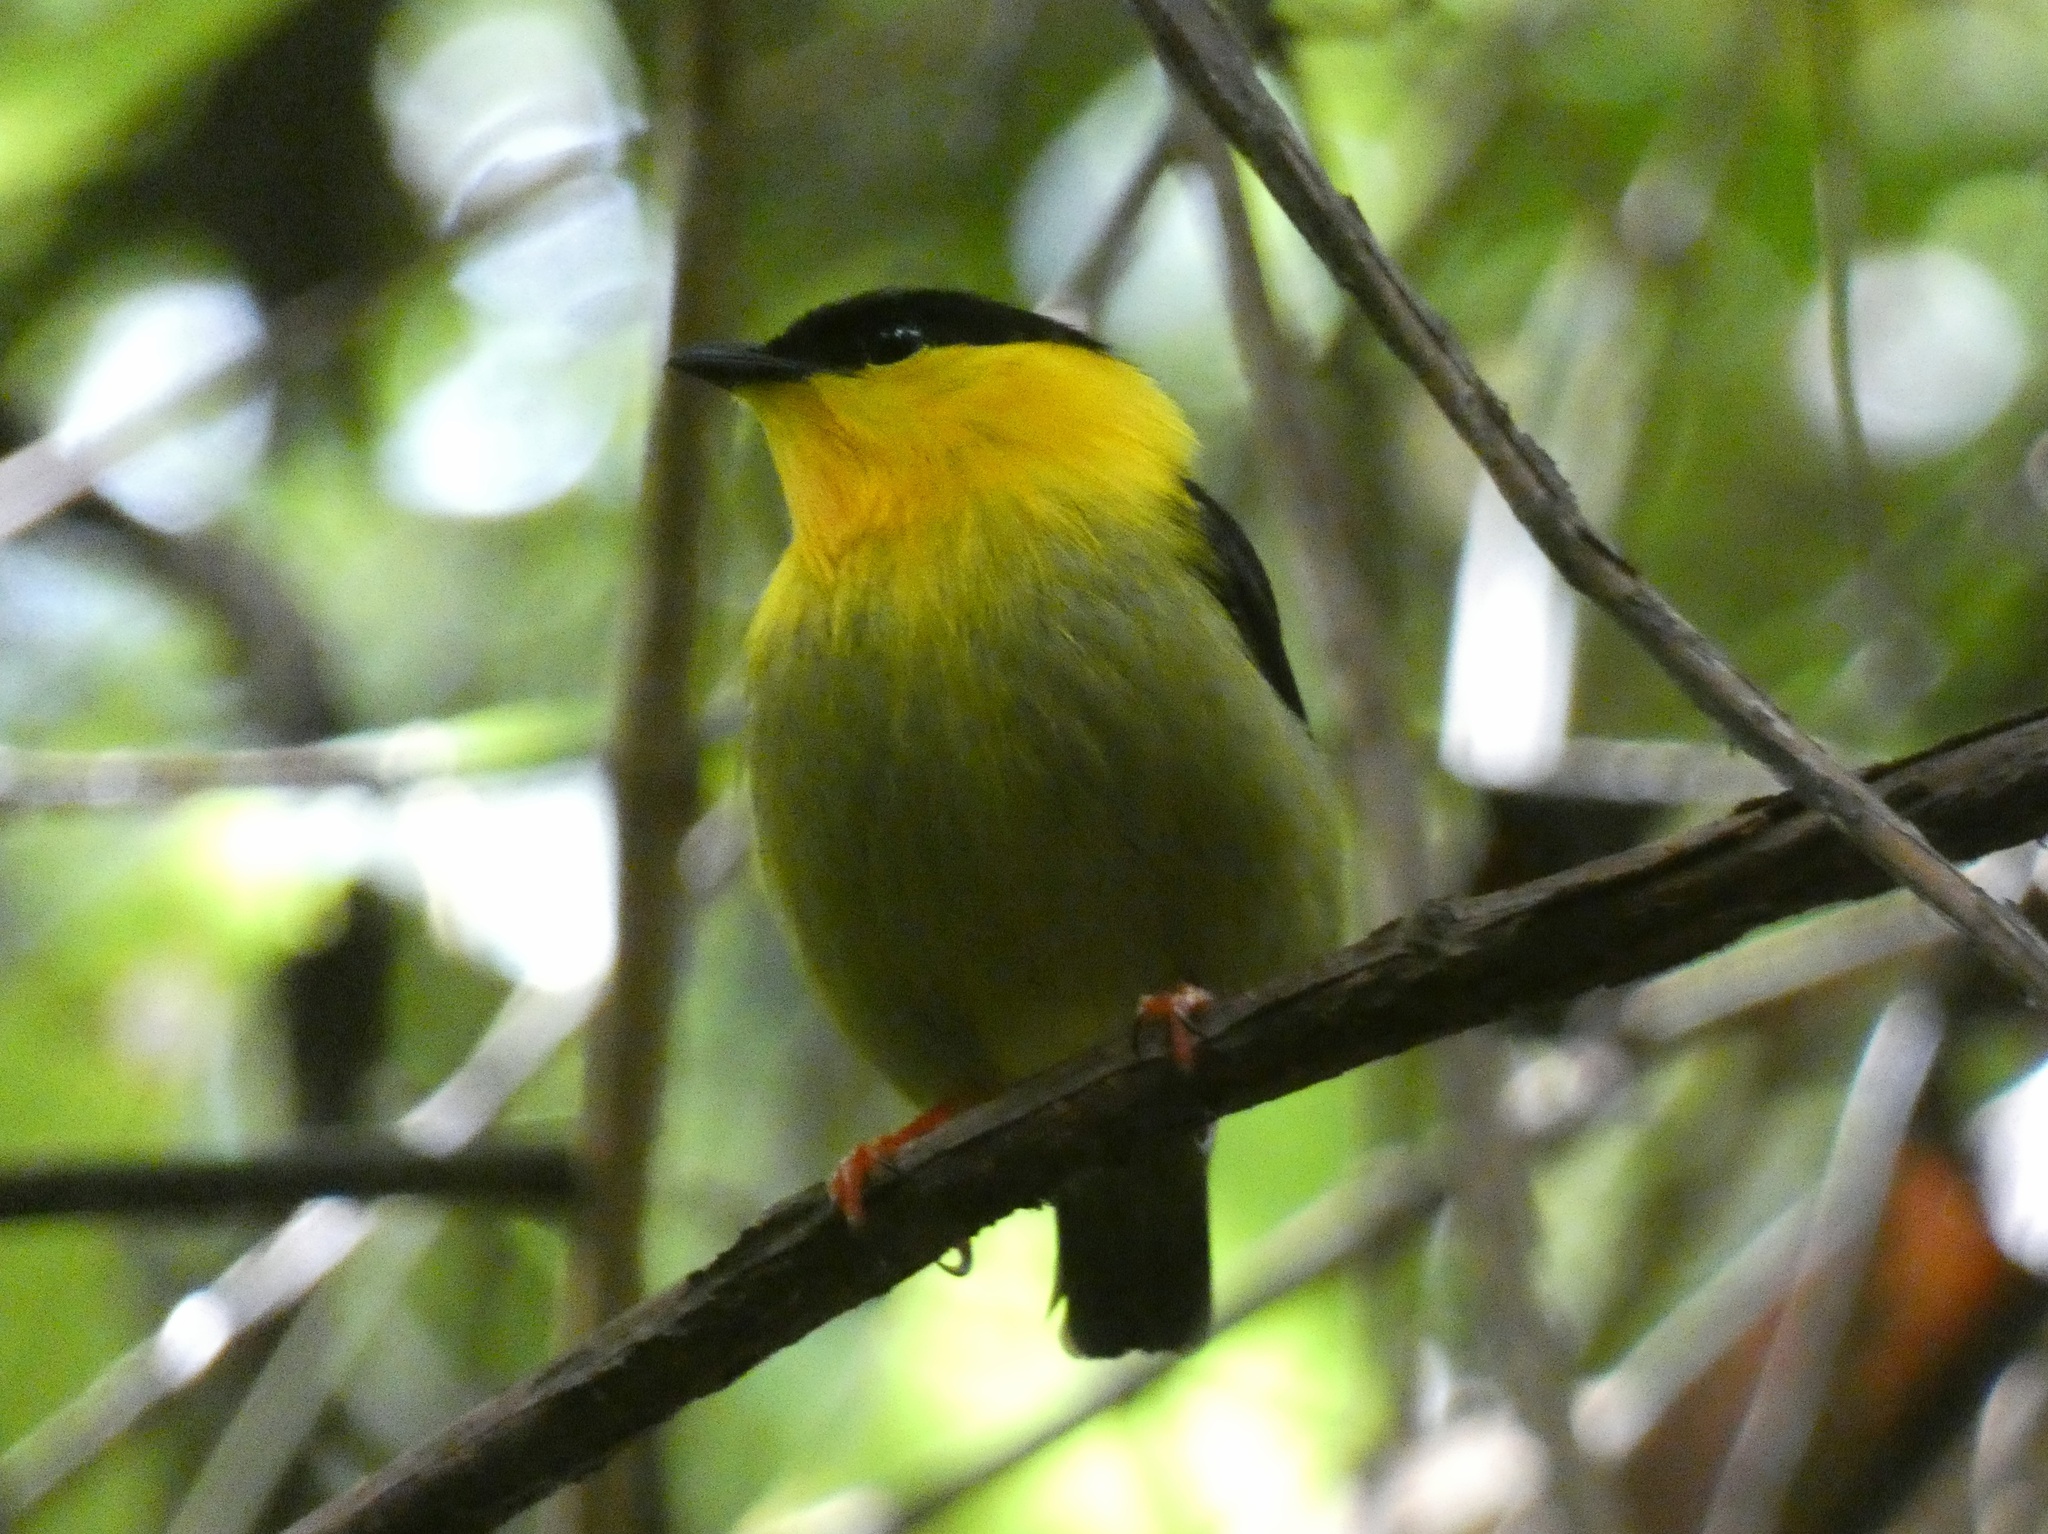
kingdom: Animalia
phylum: Chordata
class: Aves
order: Passeriformes
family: Pipridae
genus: Manacus
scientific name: Manacus vitellinus
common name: Golden-collared manakin
